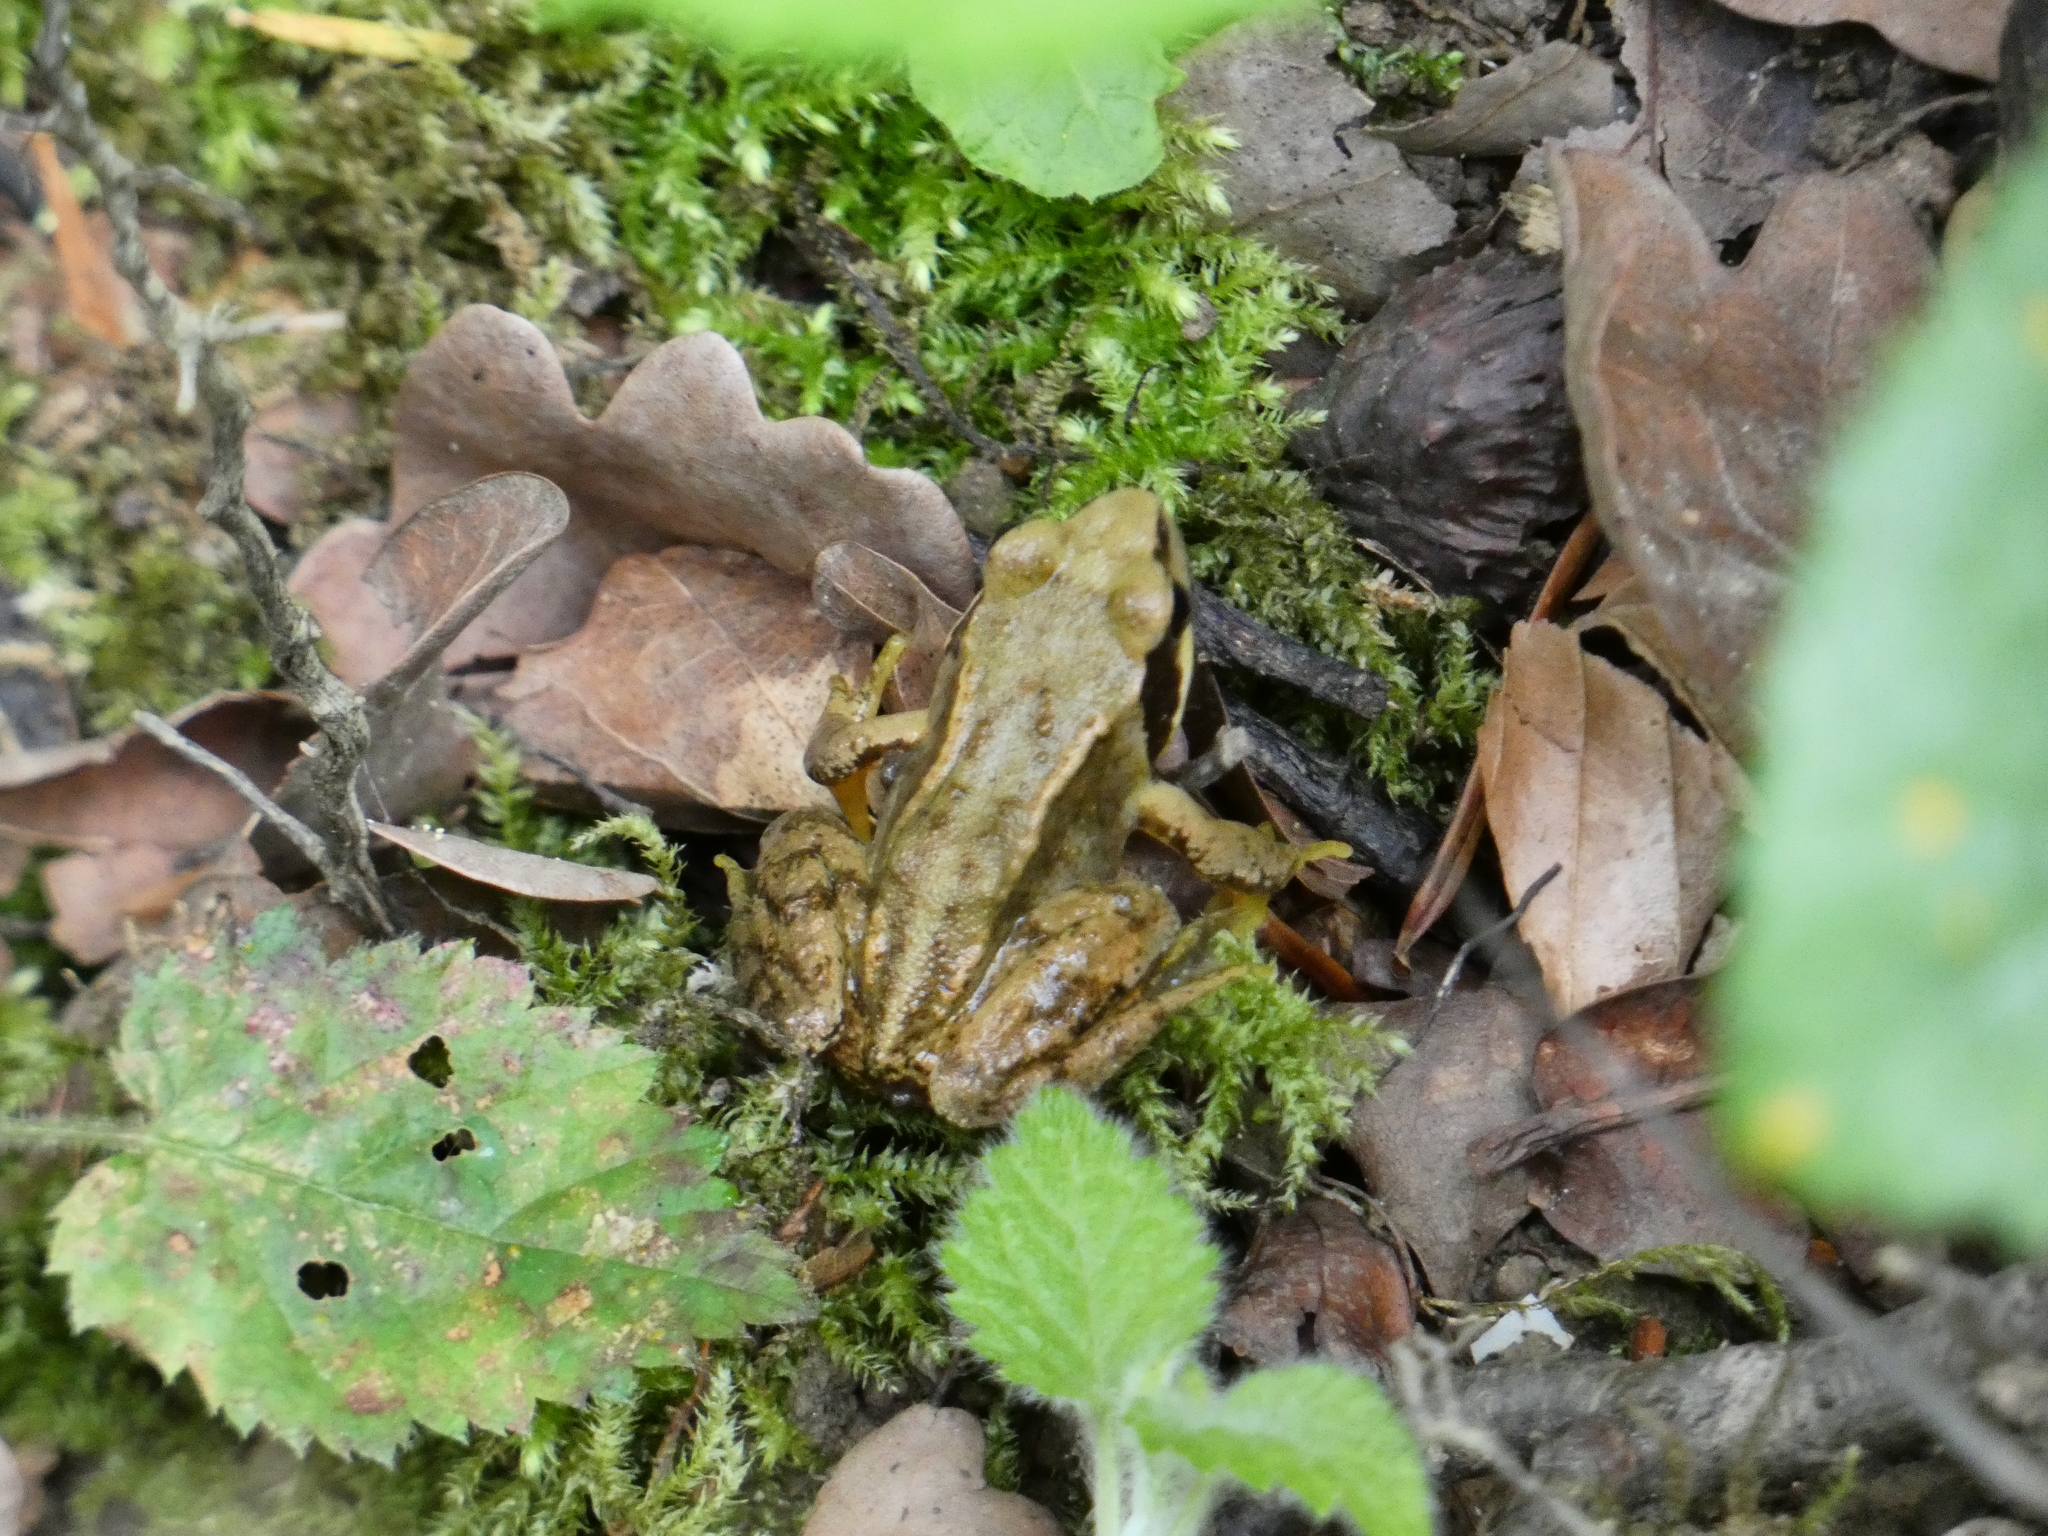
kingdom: Animalia
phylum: Chordata
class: Amphibia
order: Anura
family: Ranidae
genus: Rana
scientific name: Rana temporaria
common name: Common frog
